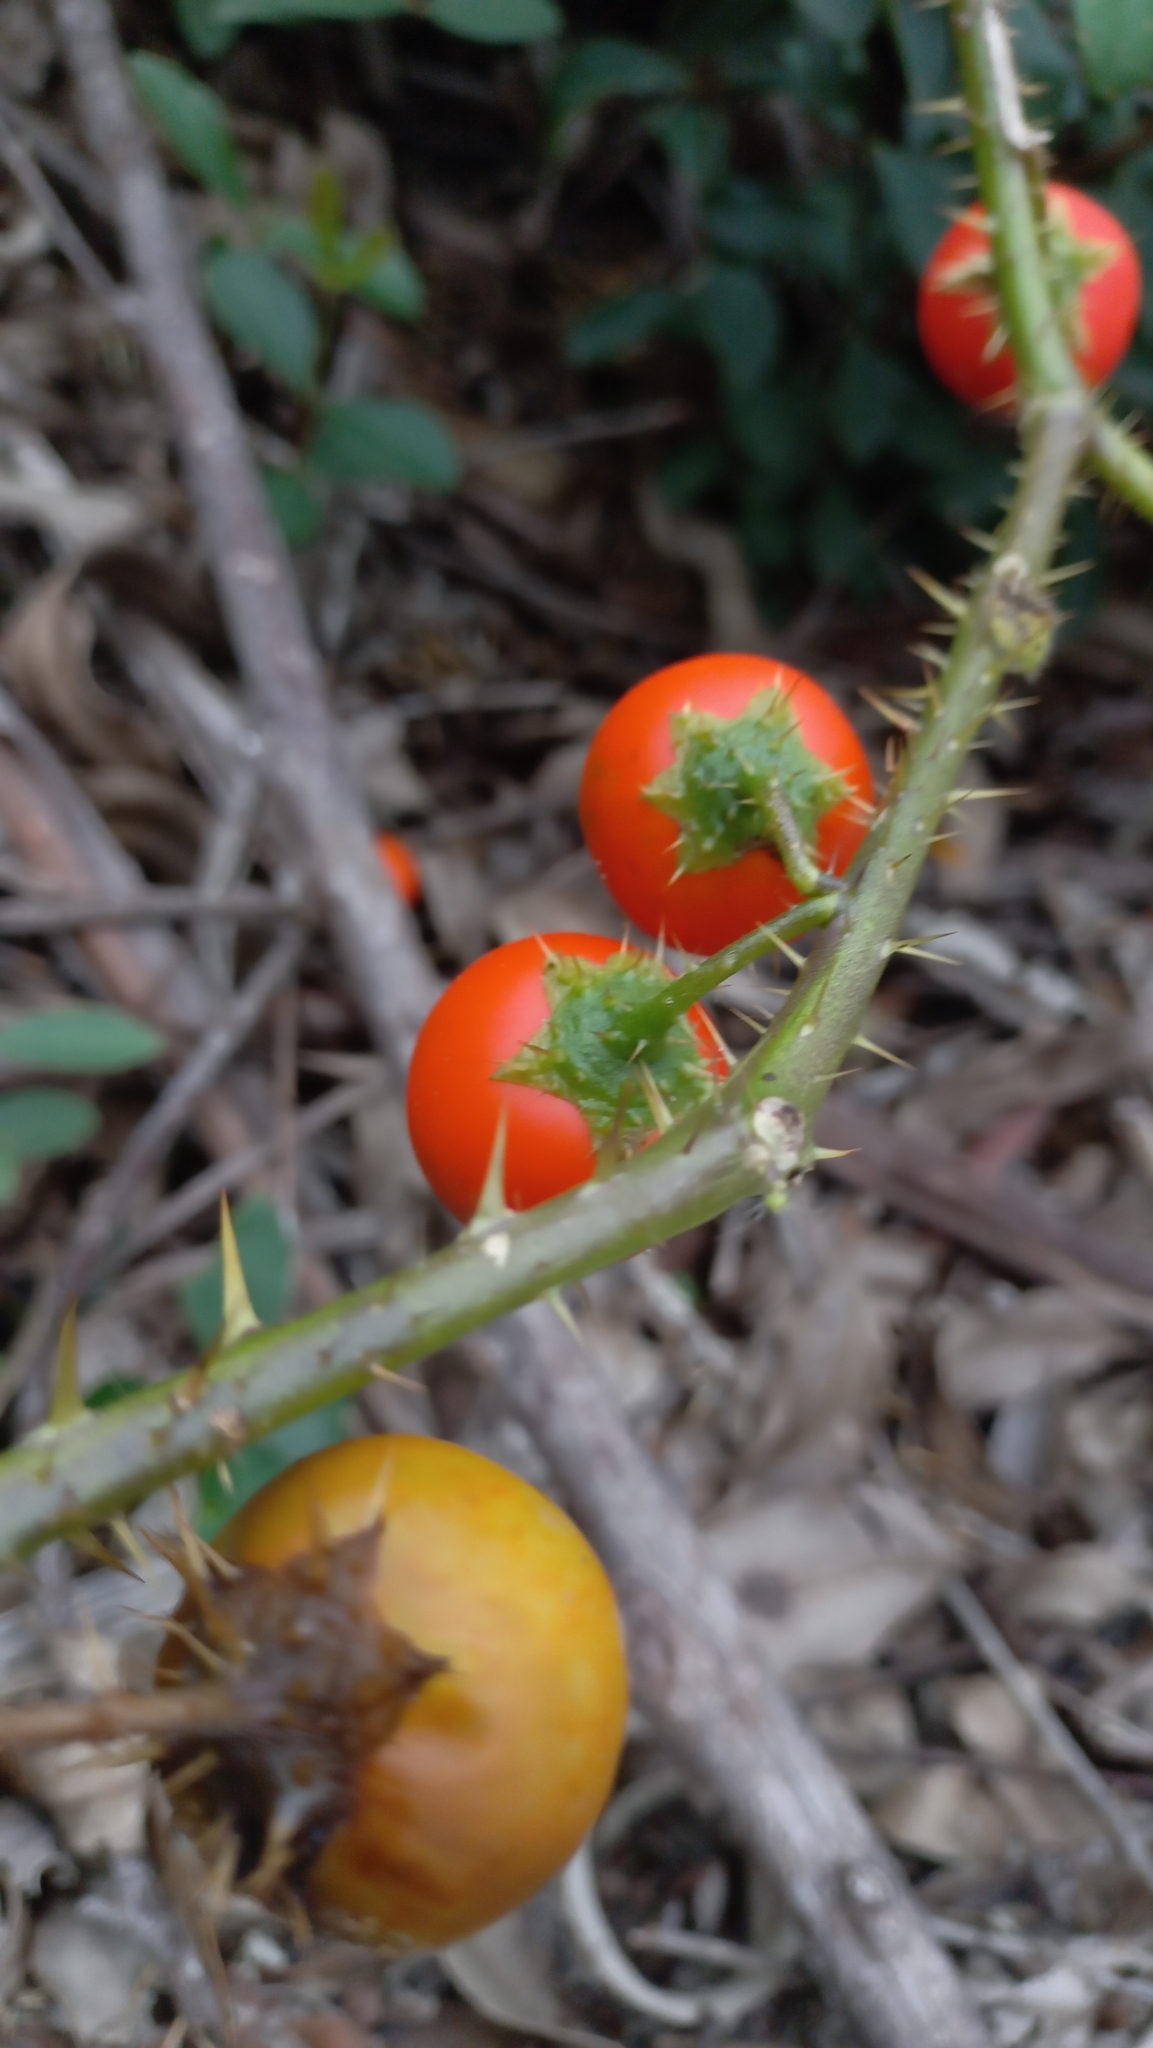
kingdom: Plantae
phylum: Tracheophyta
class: Magnoliopsida
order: Solanales
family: Solanaceae
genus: Solanum
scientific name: Solanum capsicoides
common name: Cockroach berry
